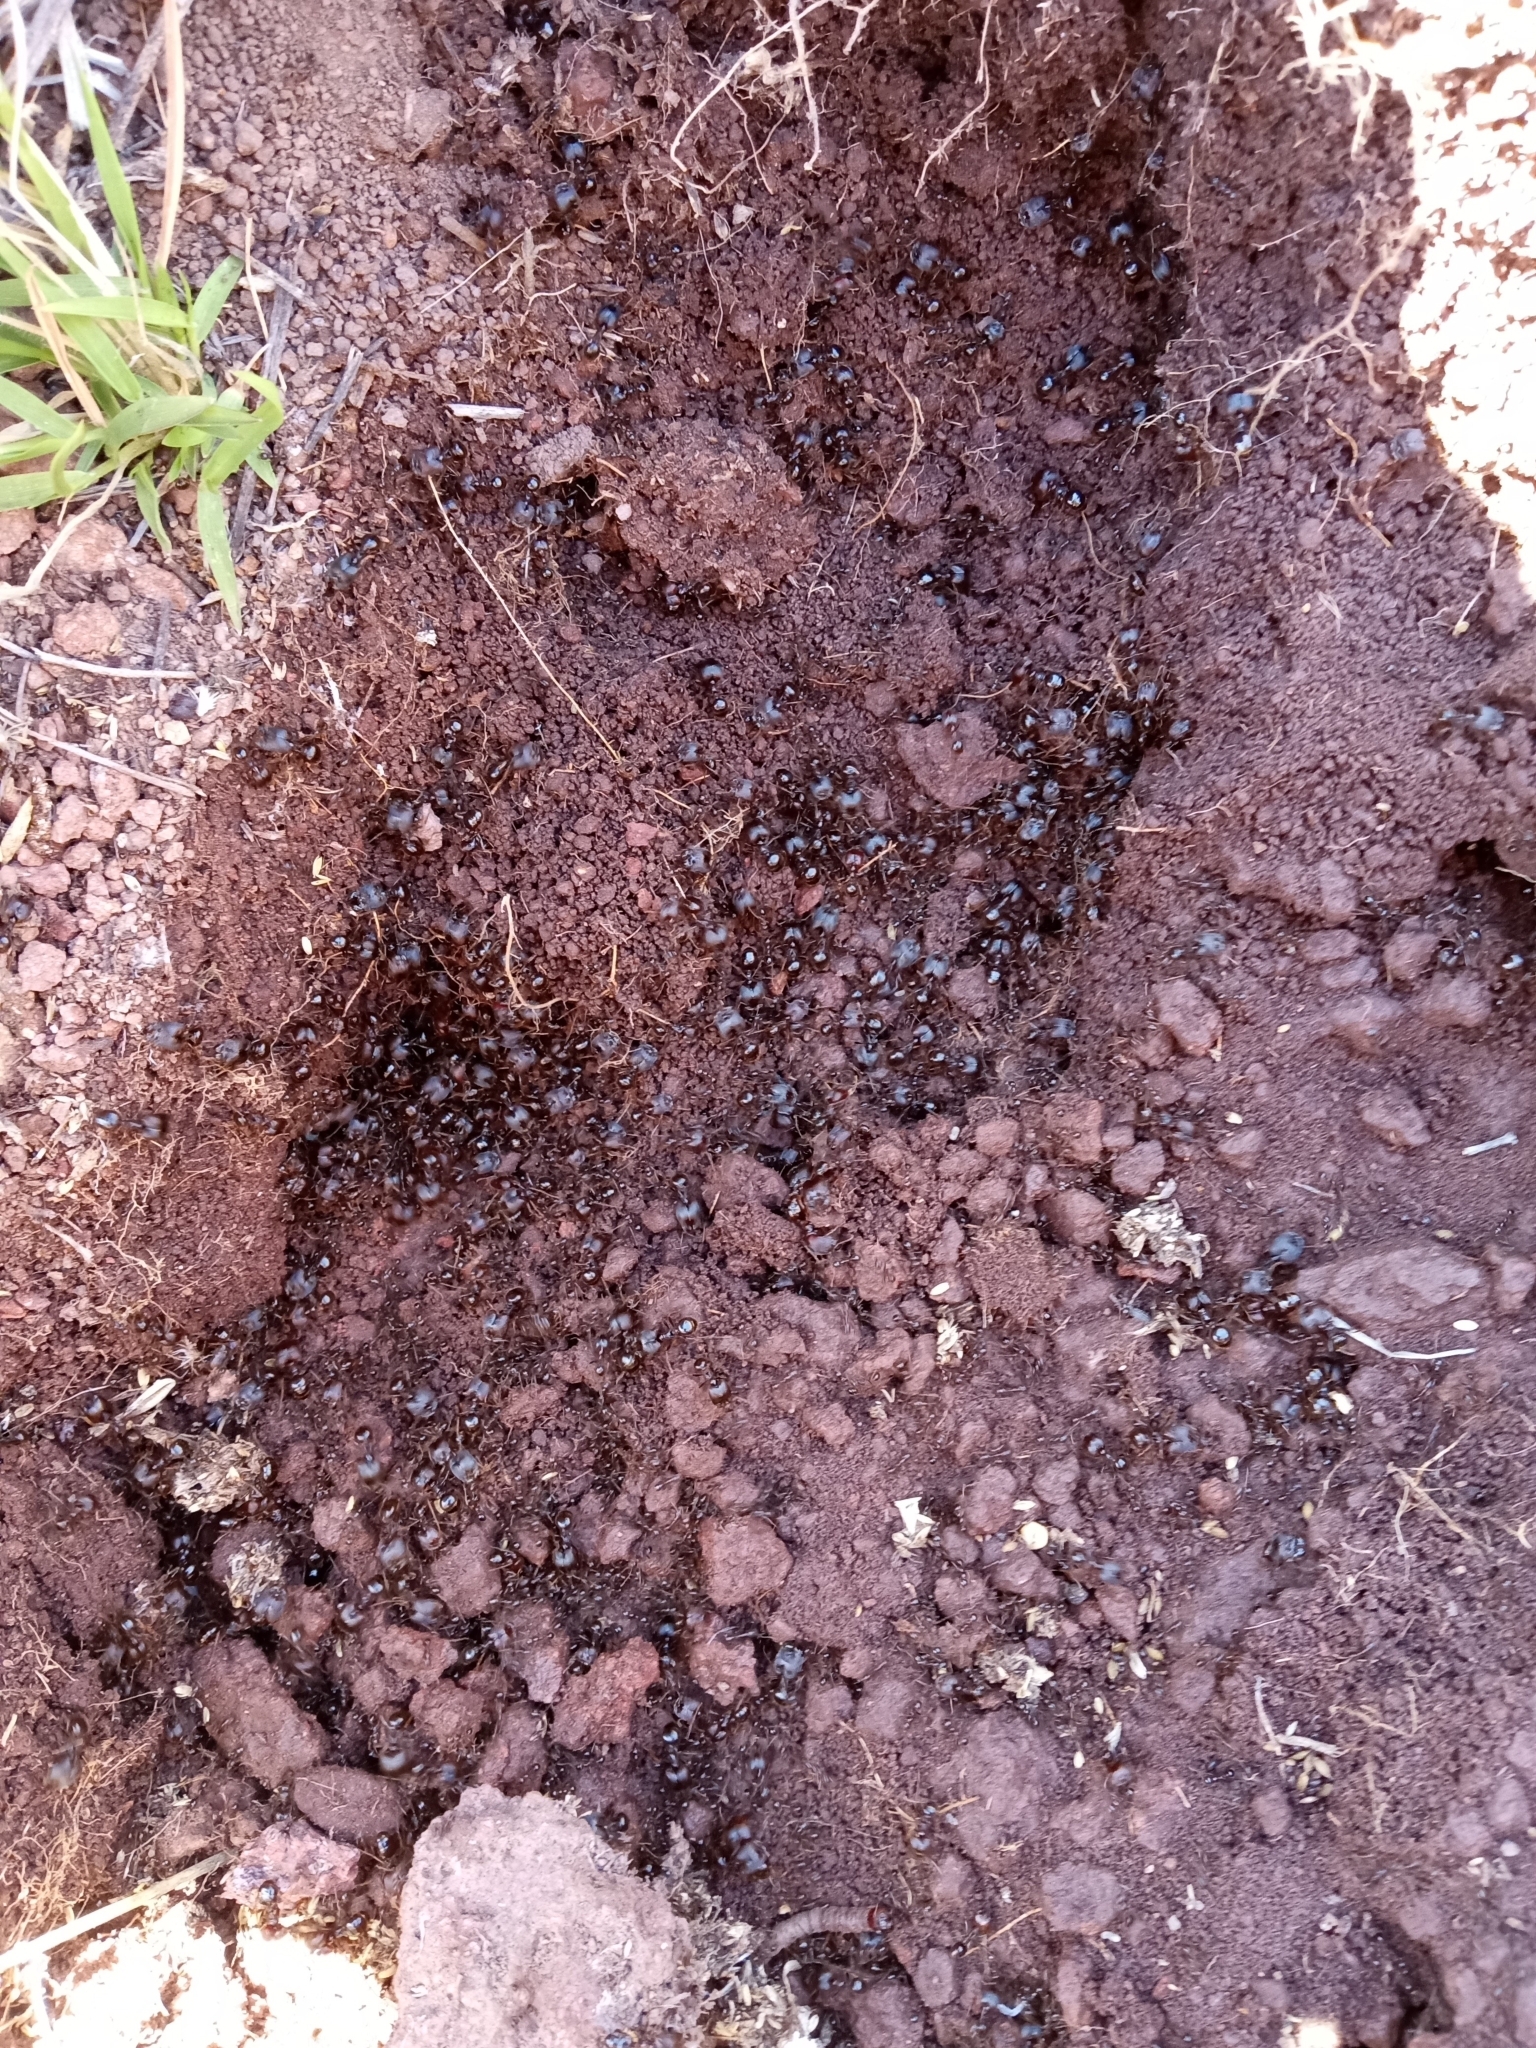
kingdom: Animalia
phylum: Arthropoda
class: Insecta
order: Hymenoptera
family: Formicidae
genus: Pheidole
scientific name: Pheidole rhea
